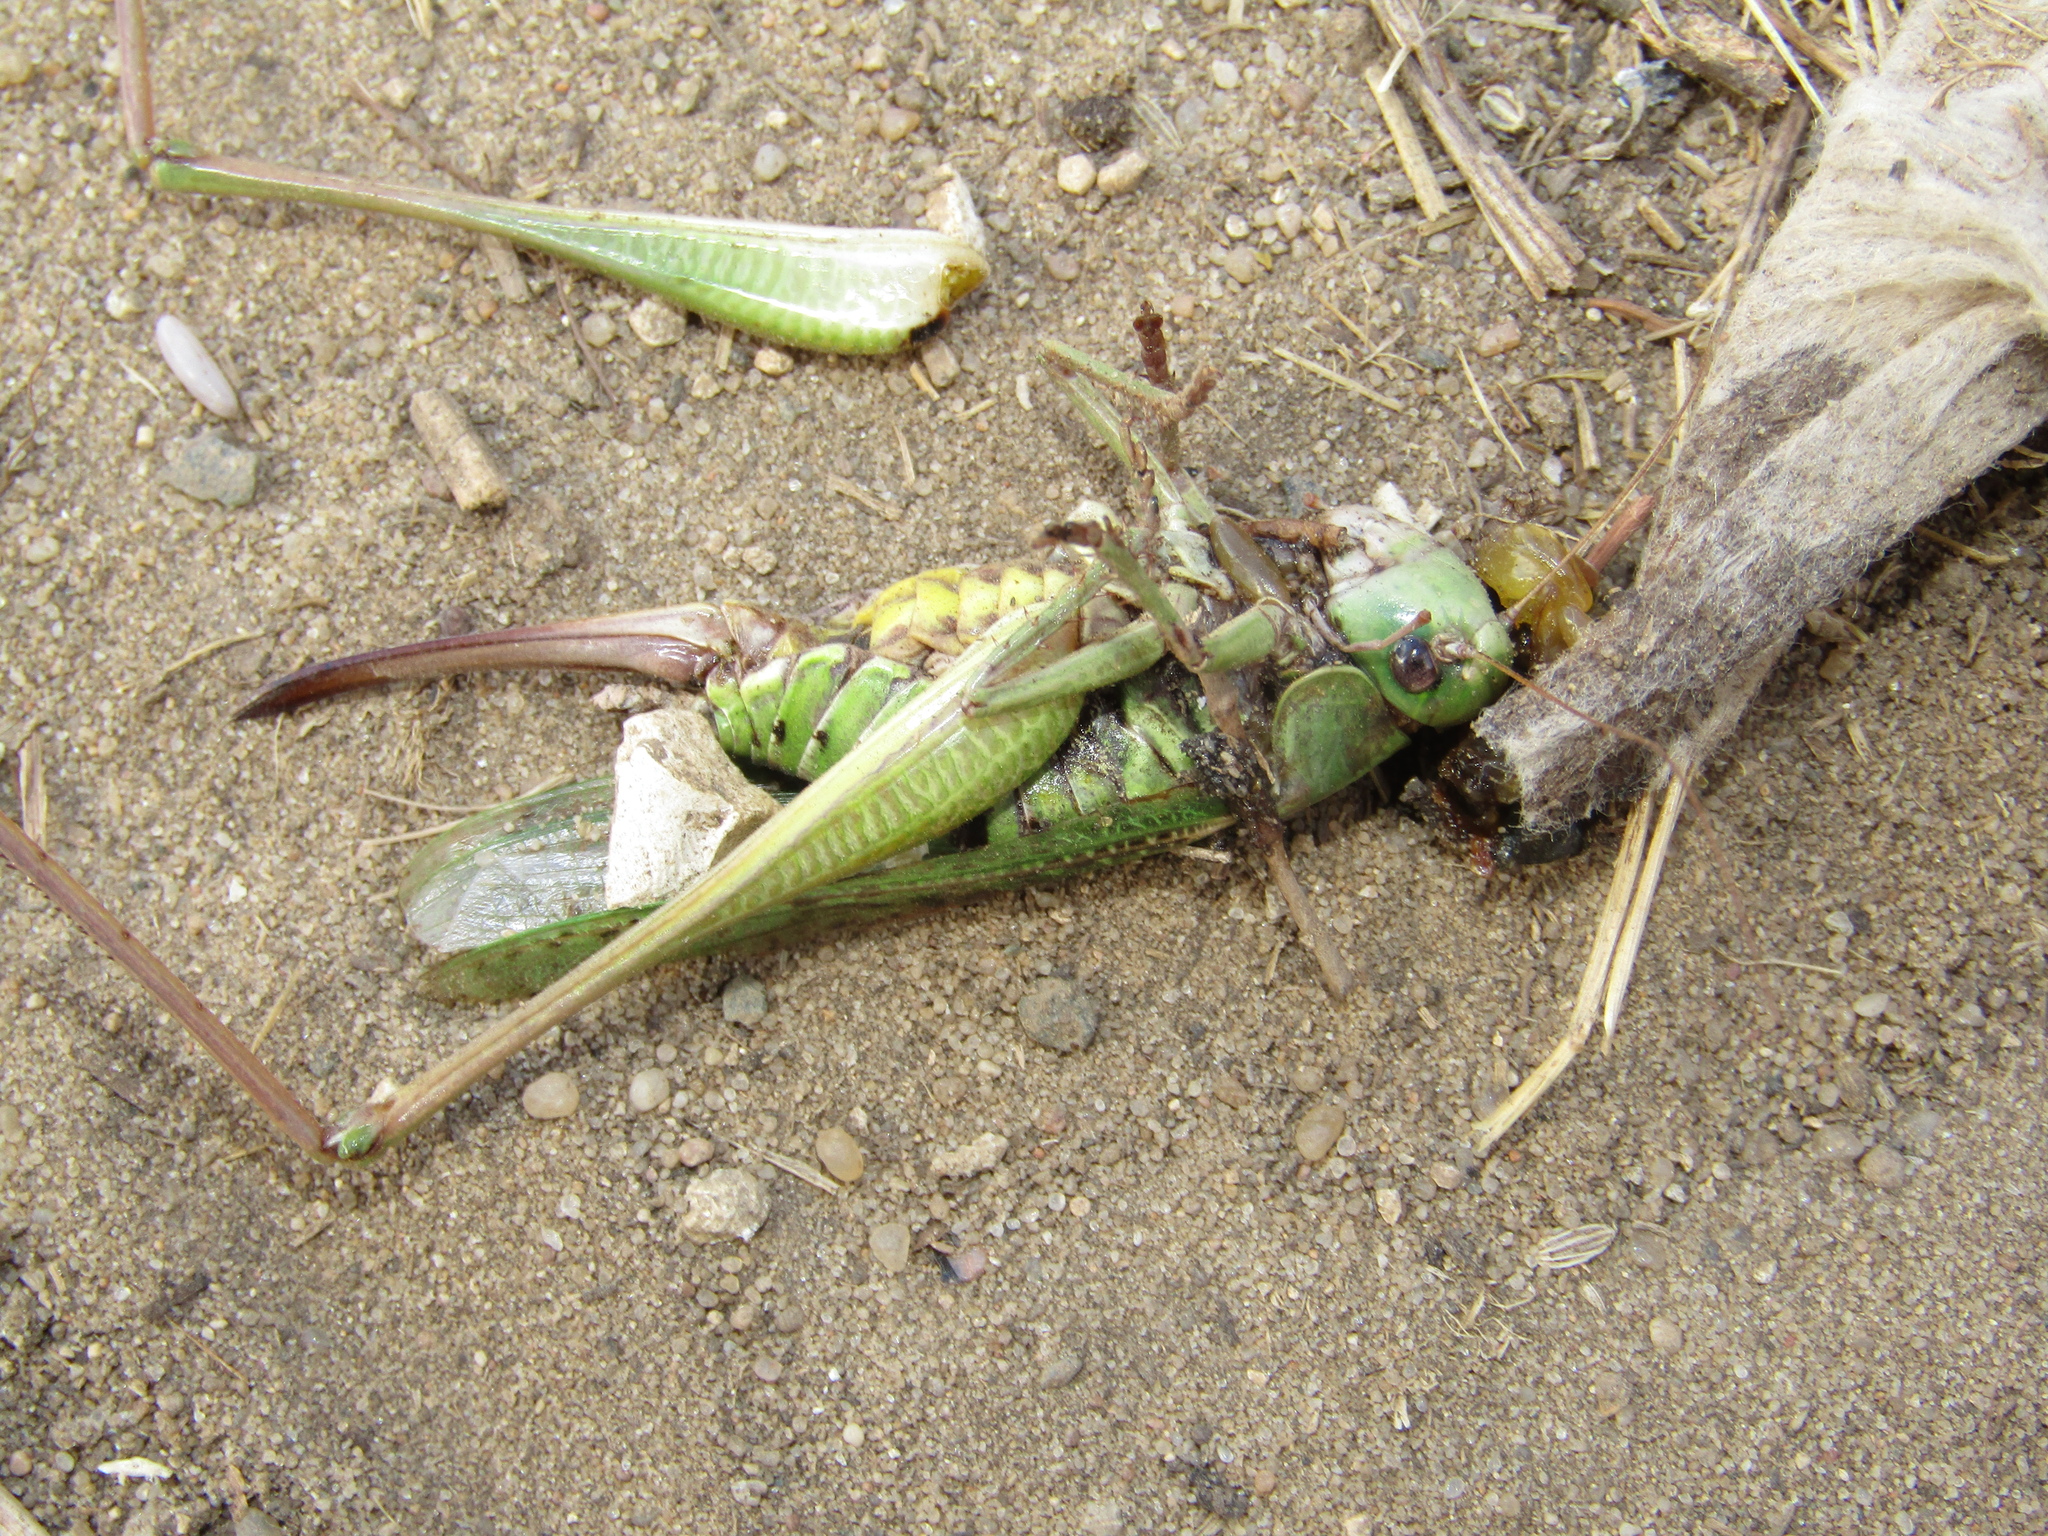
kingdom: Animalia
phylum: Arthropoda
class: Insecta
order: Orthoptera
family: Tettigoniidae
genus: Decticus
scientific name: Decticus verrucivorus
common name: Wart-biter
